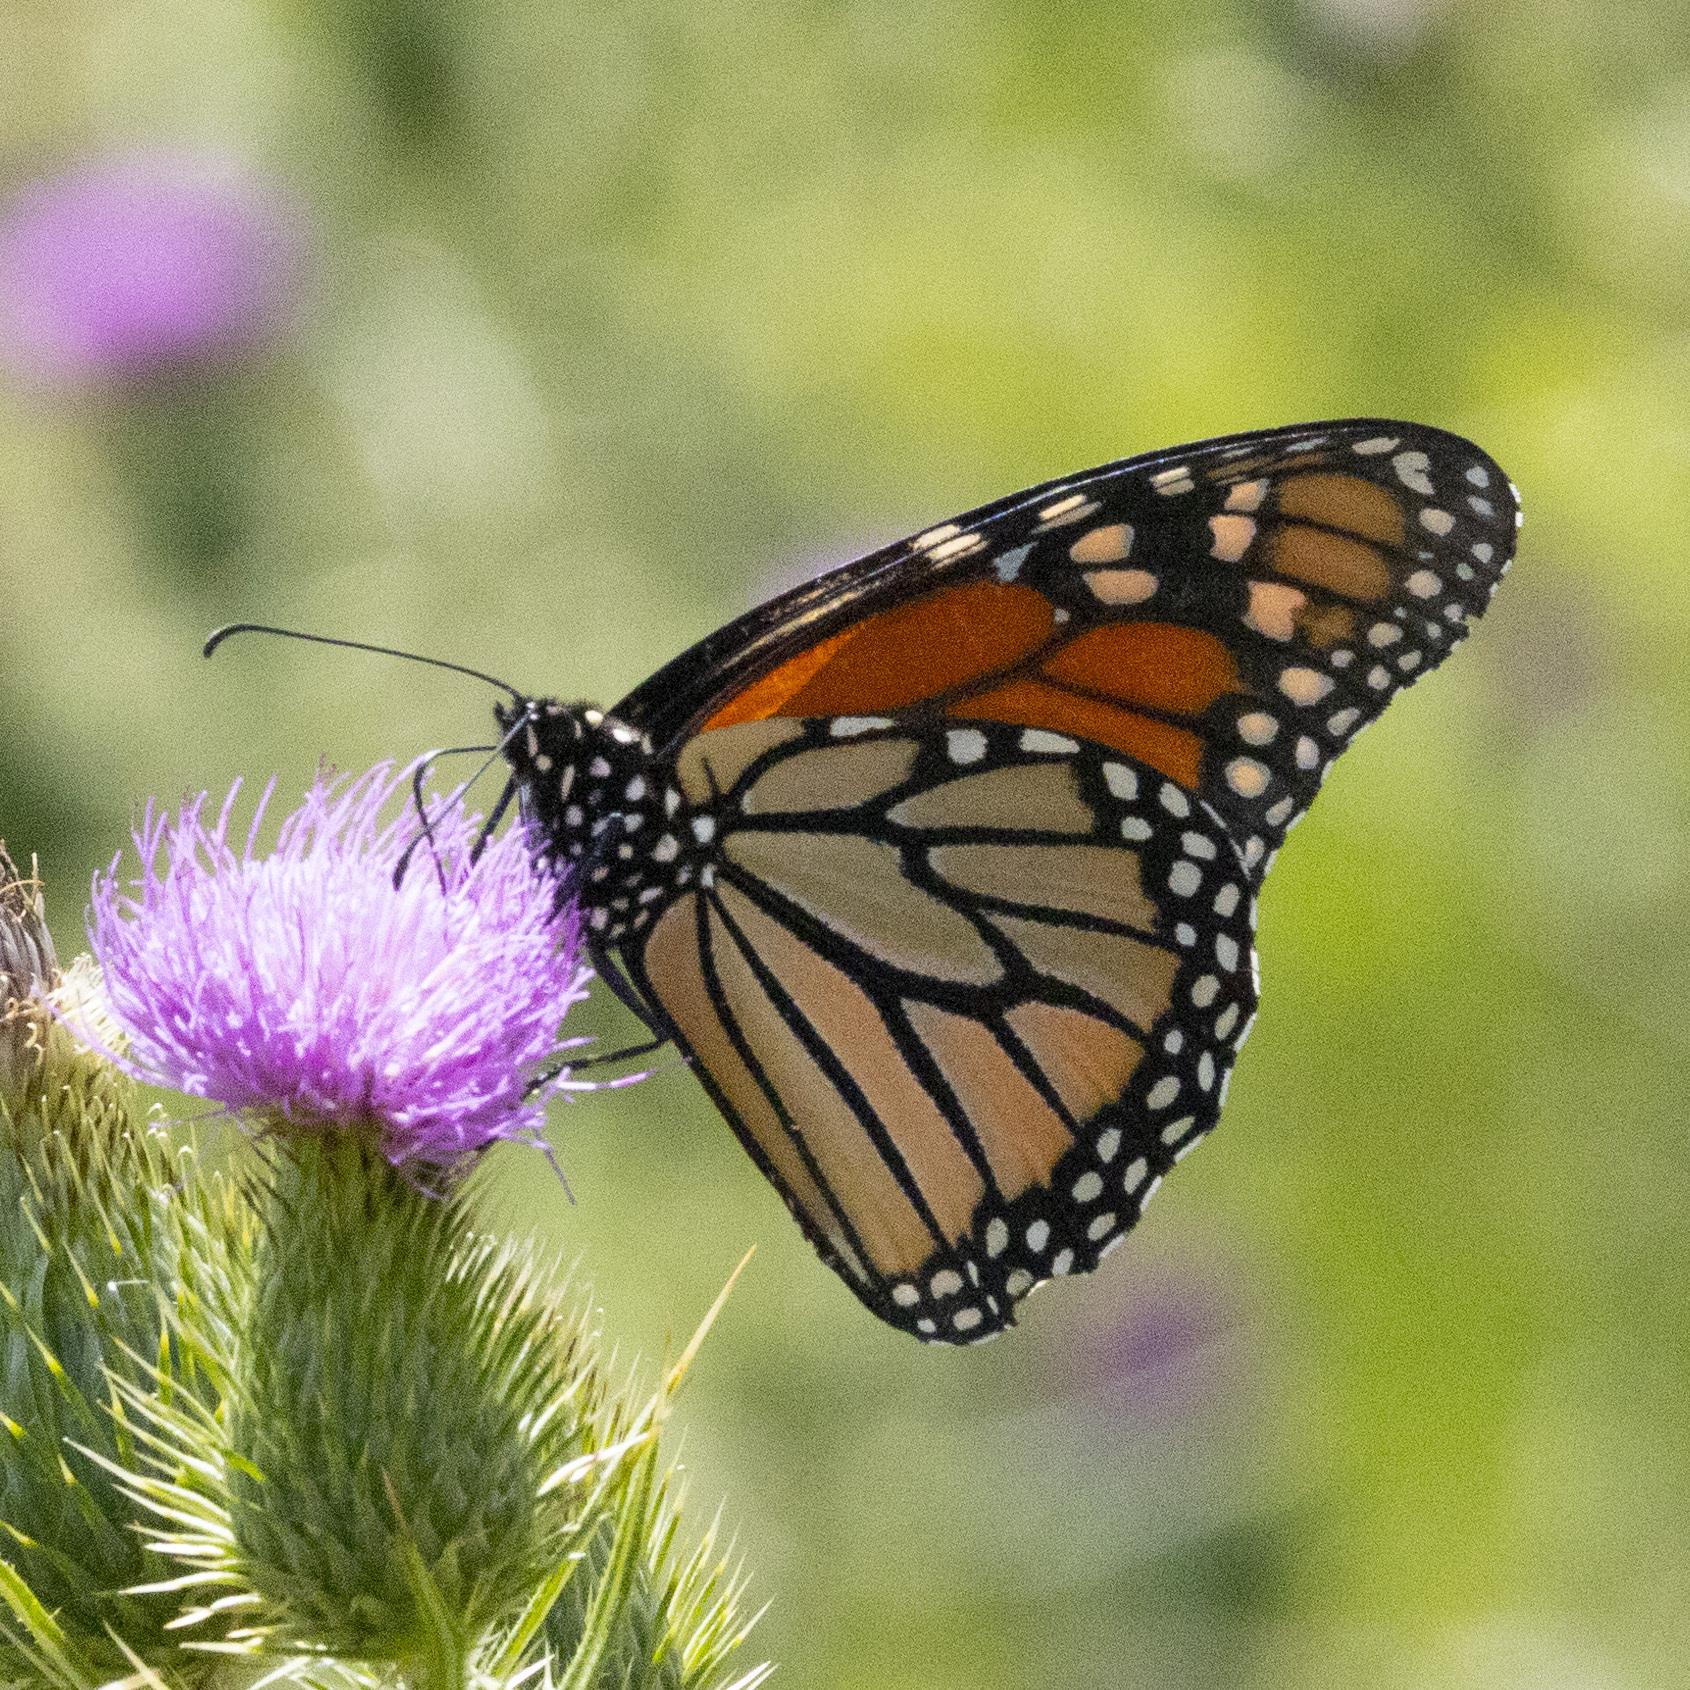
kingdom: Animalia
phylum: Arthropoda
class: Insecta
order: Lepidoptera
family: Nymphalidae
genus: Danaus
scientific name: Danaus plexippus
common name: Monarch
